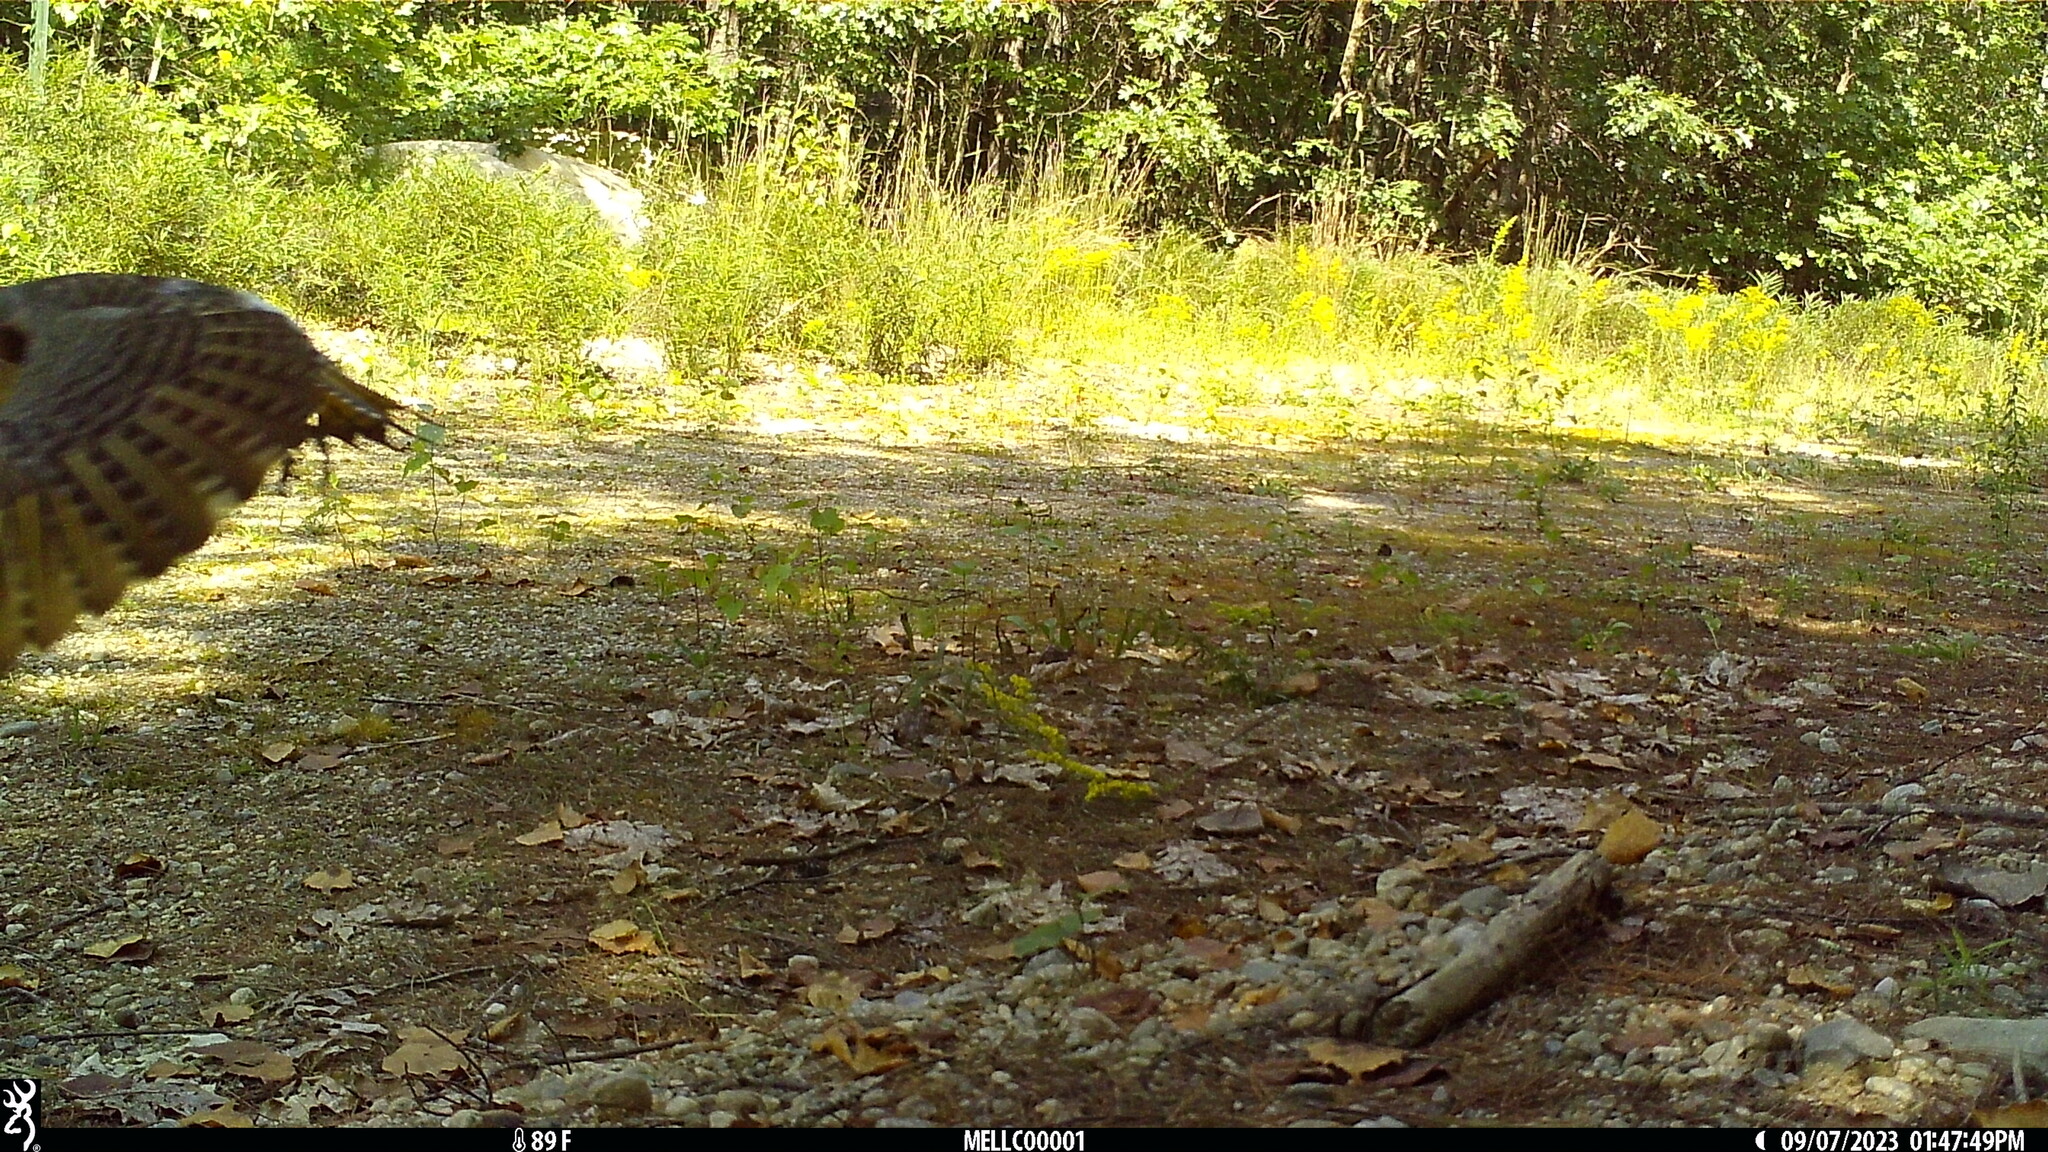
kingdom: Animalia
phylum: Chordata
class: Aves
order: Piciformes
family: Picidae
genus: Colaptes
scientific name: Colaptes auratus
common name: Northern flicker
